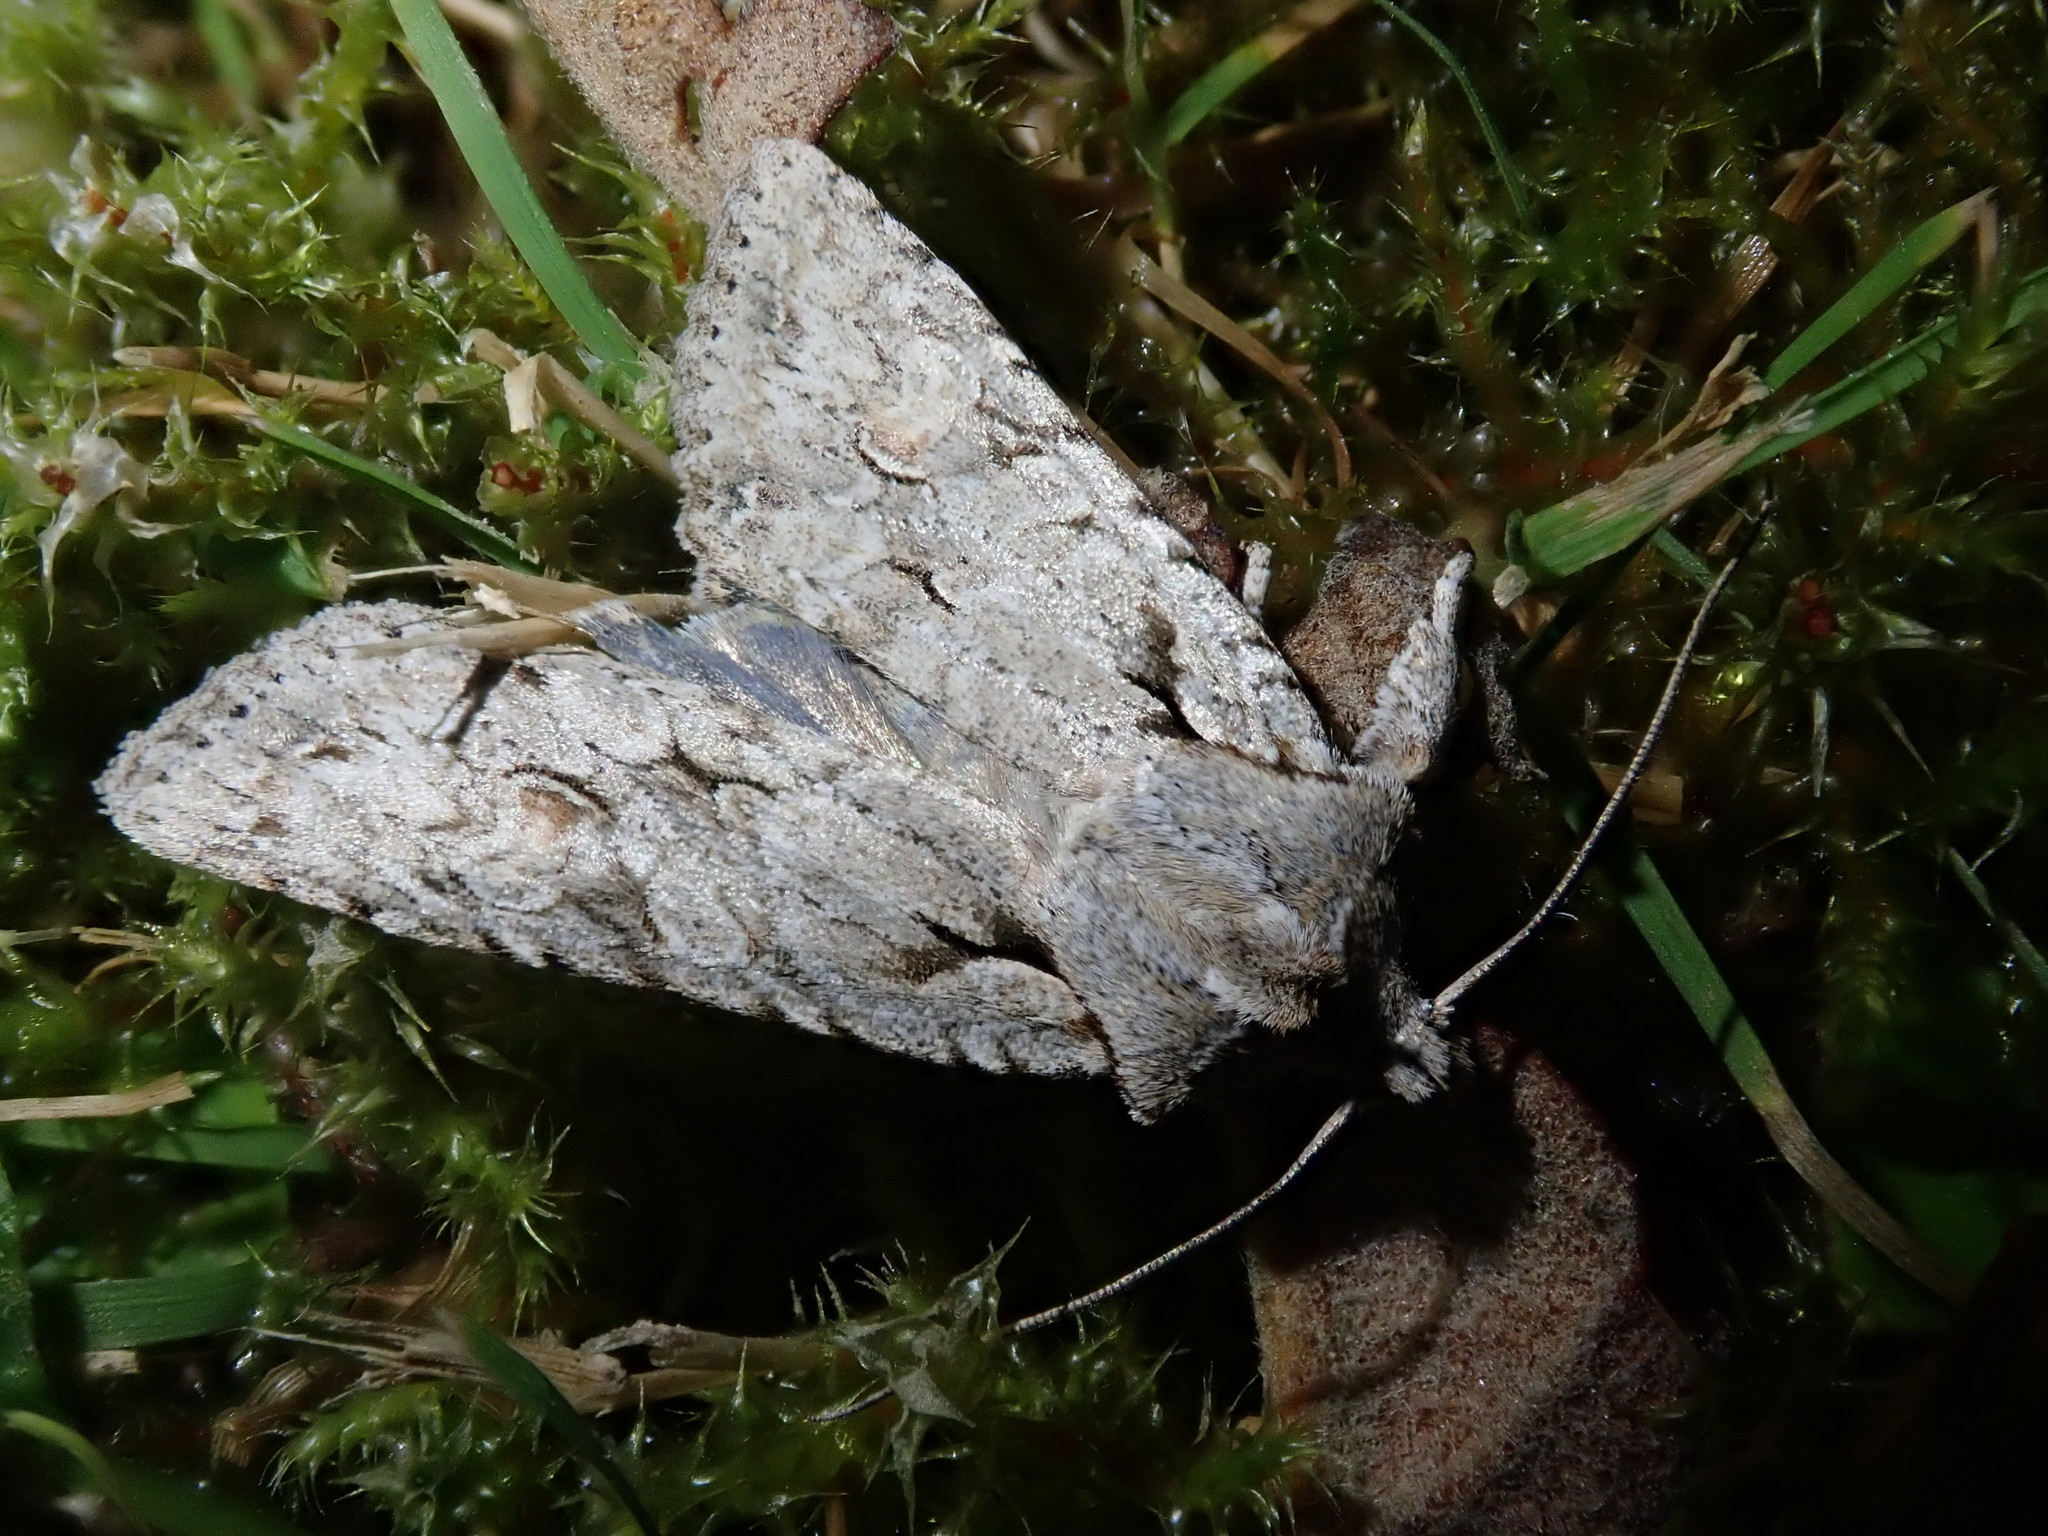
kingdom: Animalia
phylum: Arthropoda
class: Insecta
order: Lepidoptera
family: Noctuidae
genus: Lithophane
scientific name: Lithophane ornitopus
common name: Grey shoulder-knot
